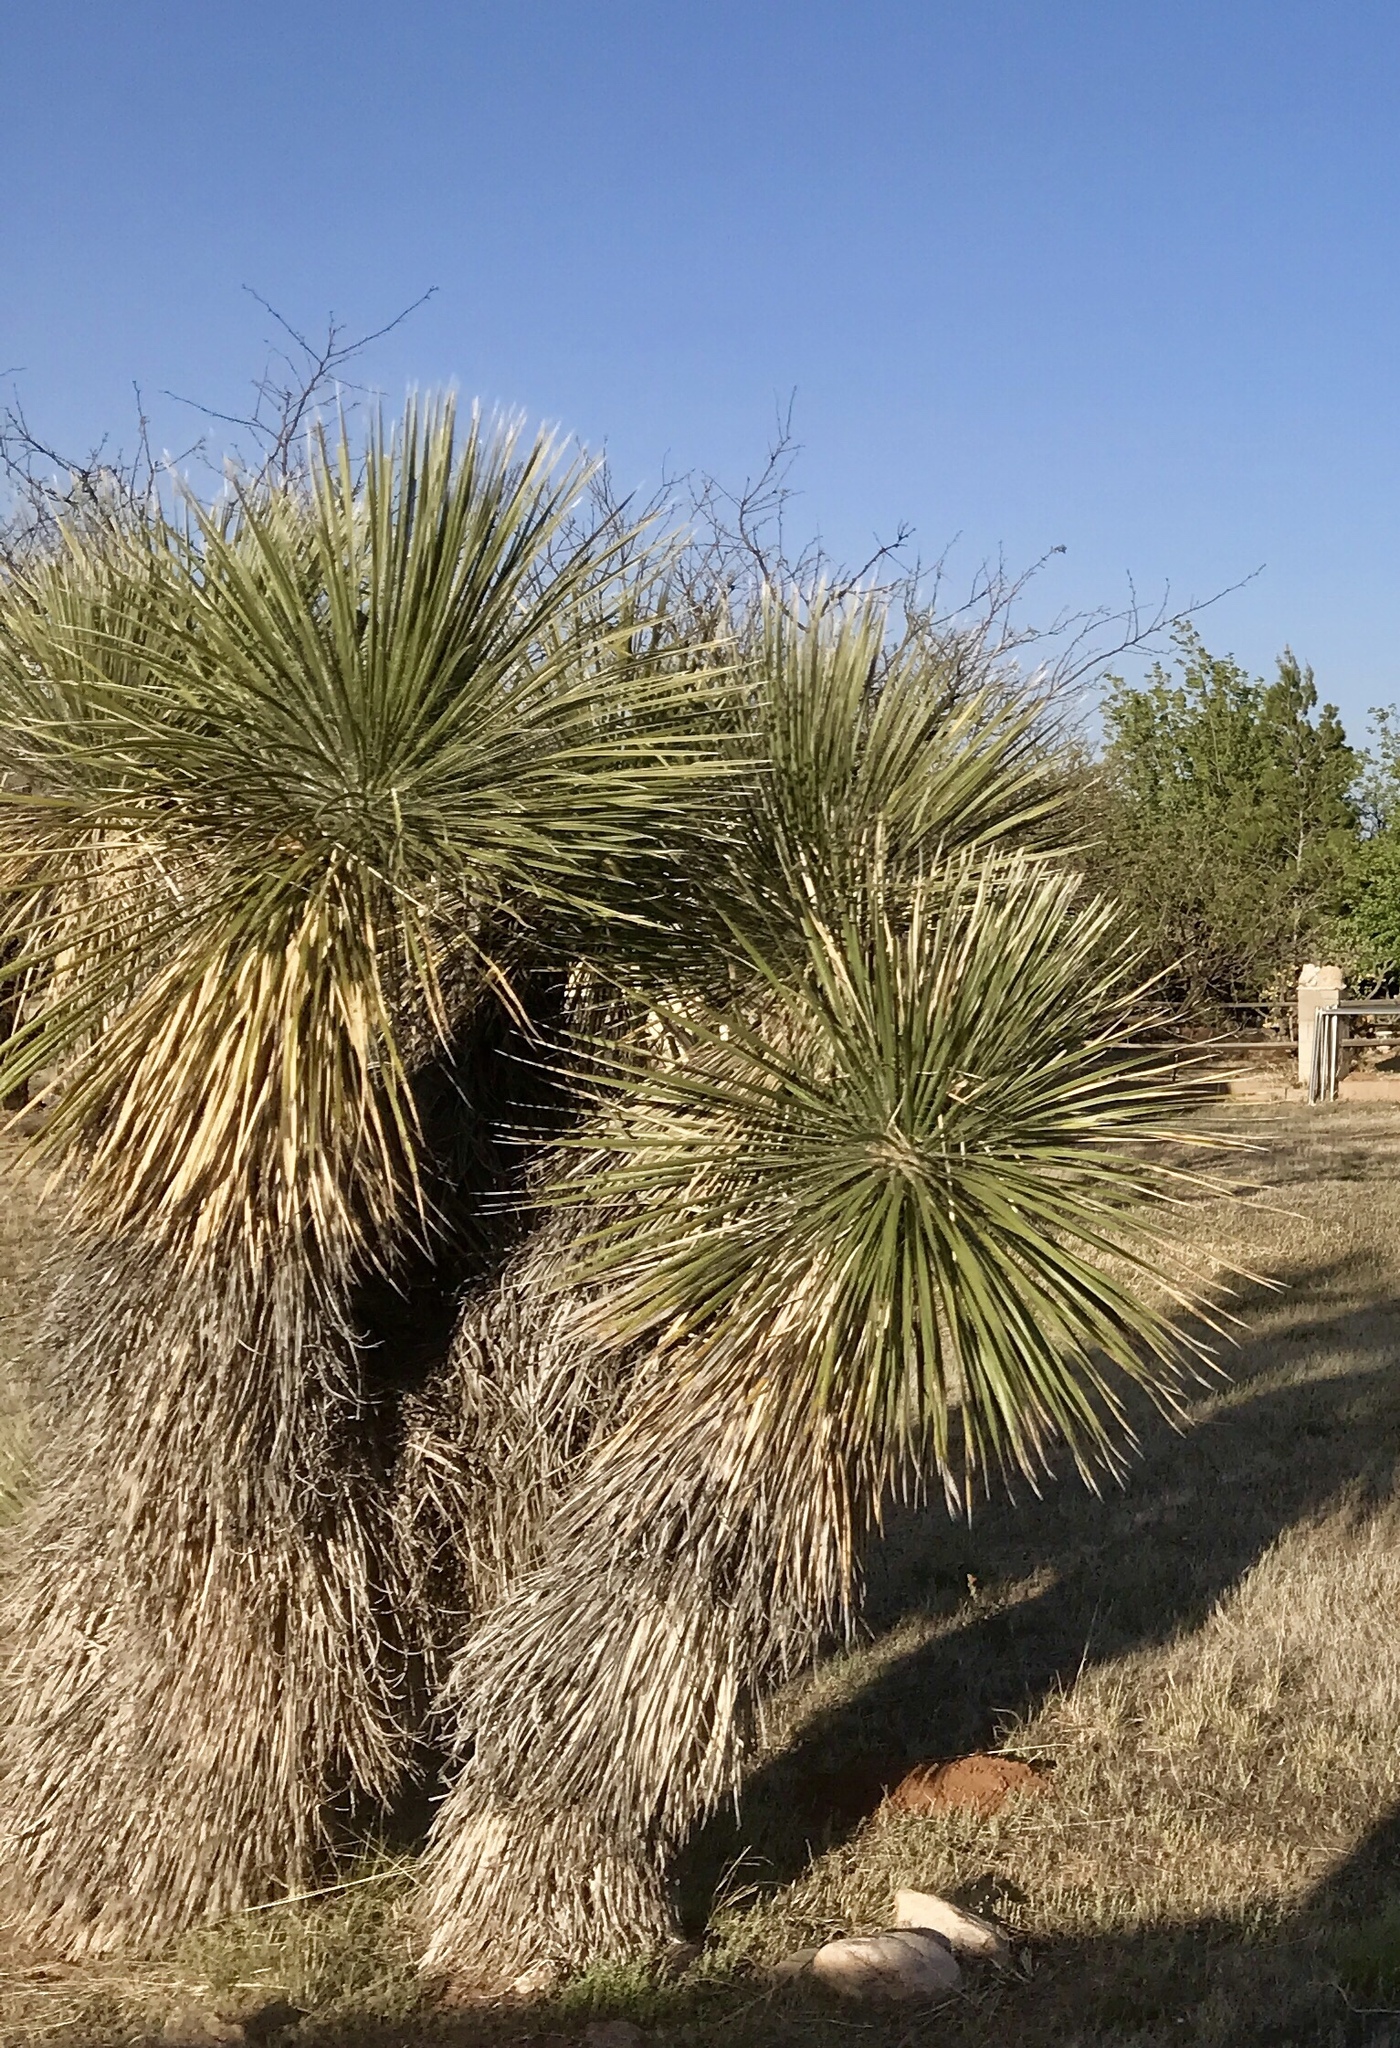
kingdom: Plantae
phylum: Tracheophyta
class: Liliopsida
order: Asparagales
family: Asparagaceae
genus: Yucca
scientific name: Yucca elata
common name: Palmella
